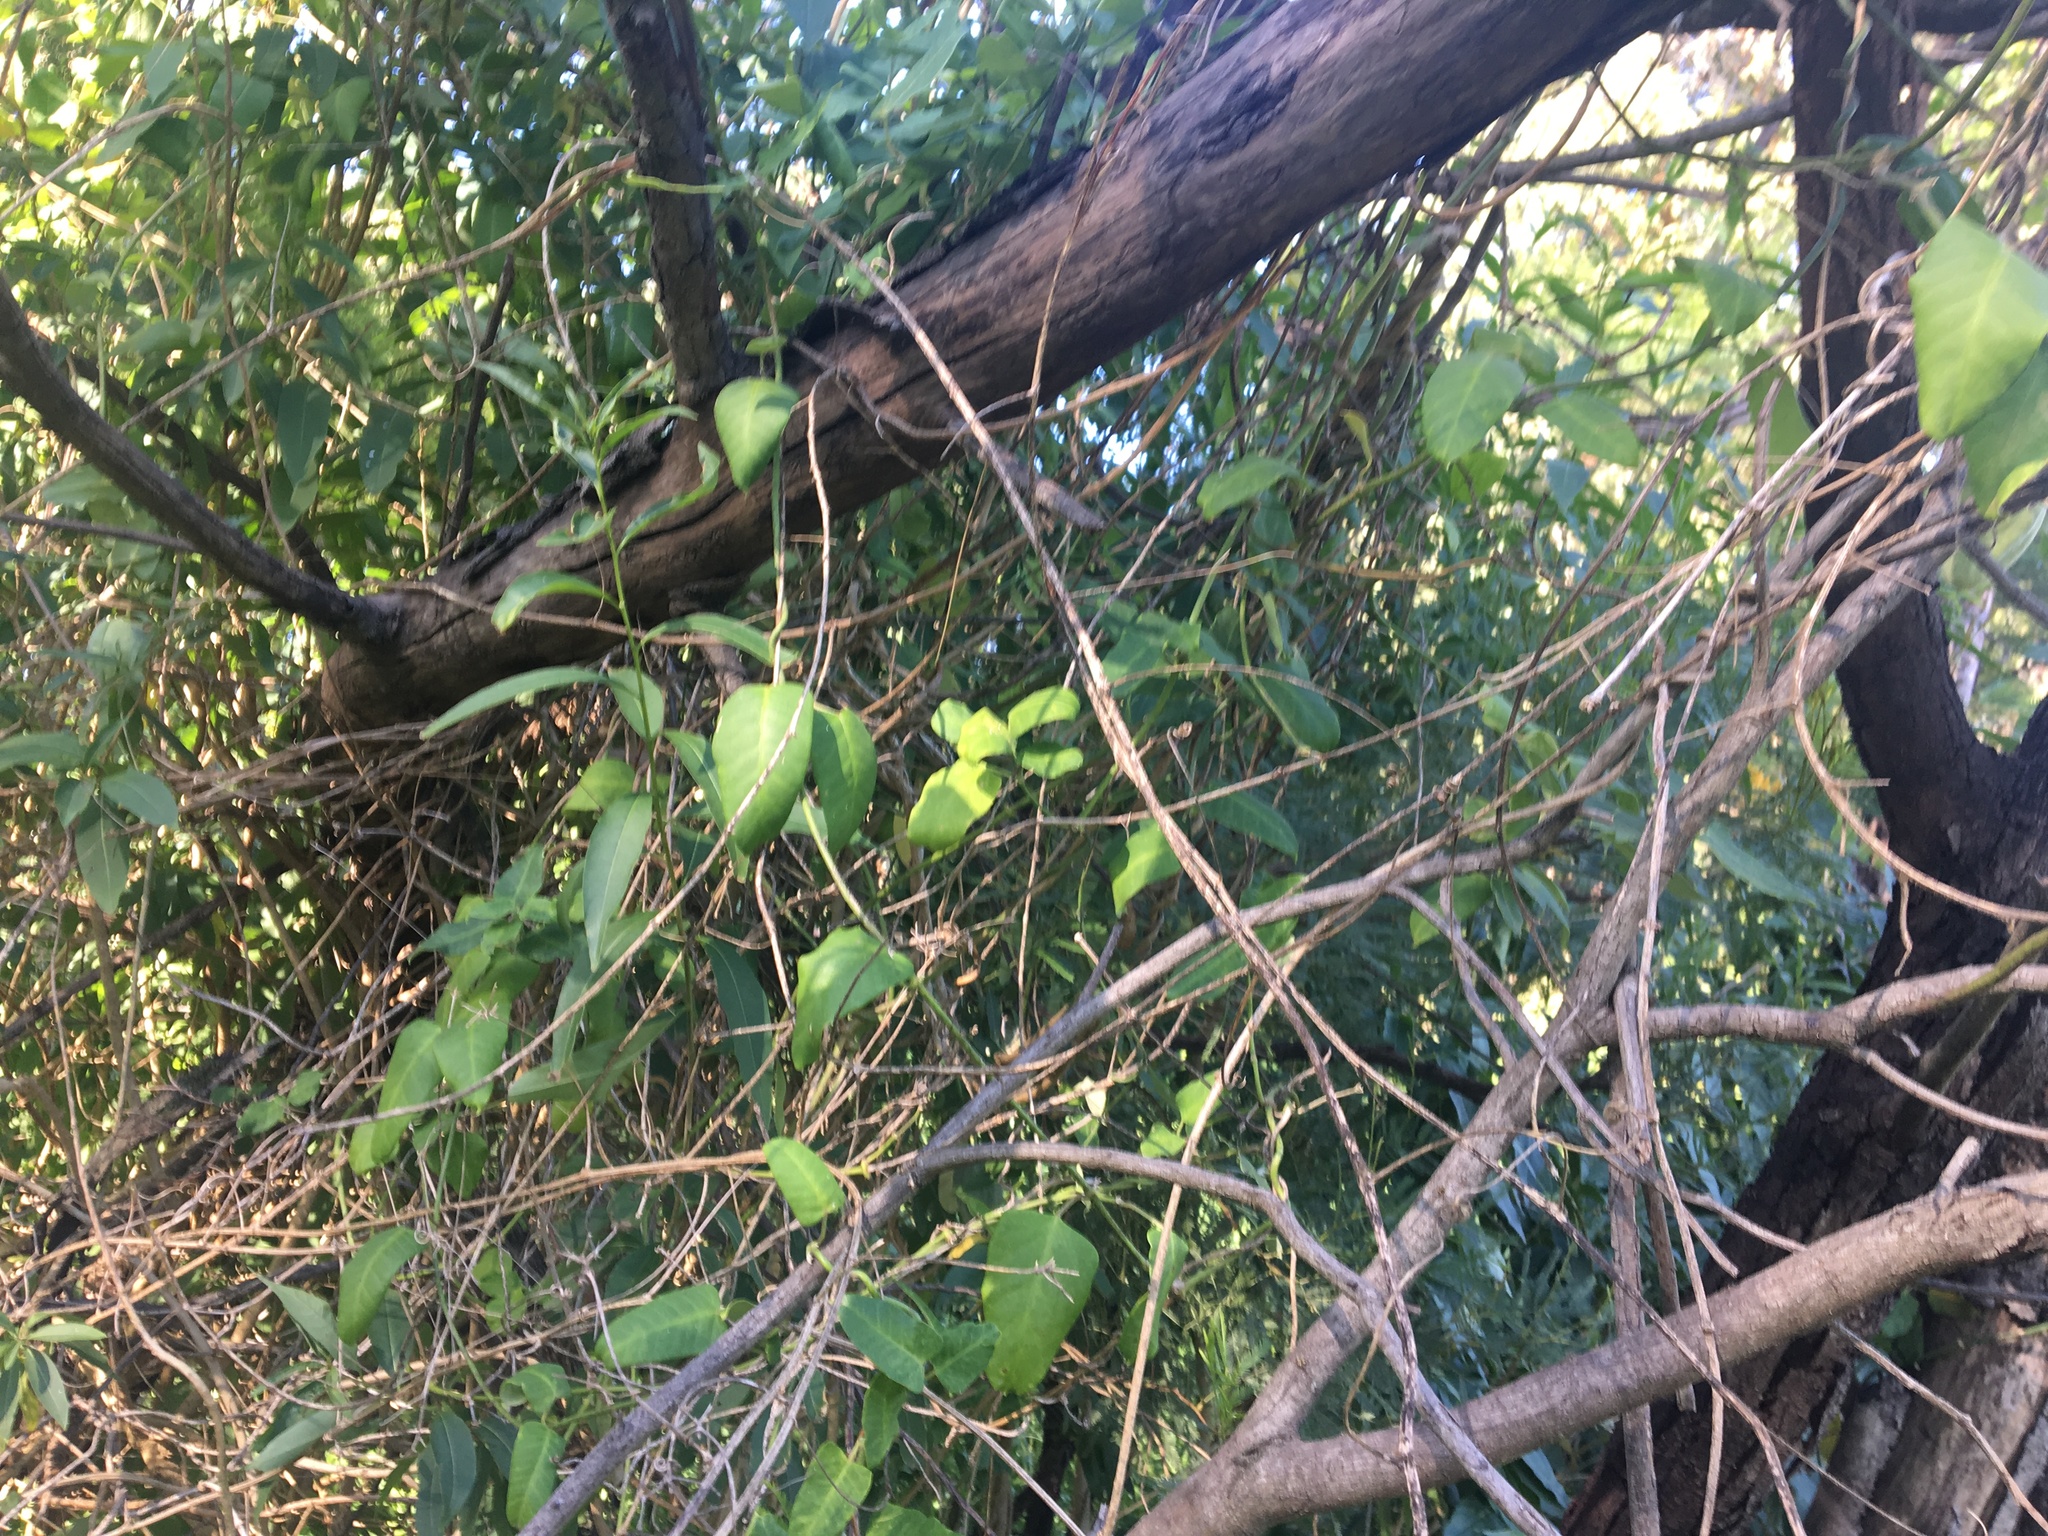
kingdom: Plantae
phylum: Tracheophyta
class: Magnoliopsida
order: Gentianales
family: Apocynaceae
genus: Araujia
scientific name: Araujia sericifera
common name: White bladderflower
